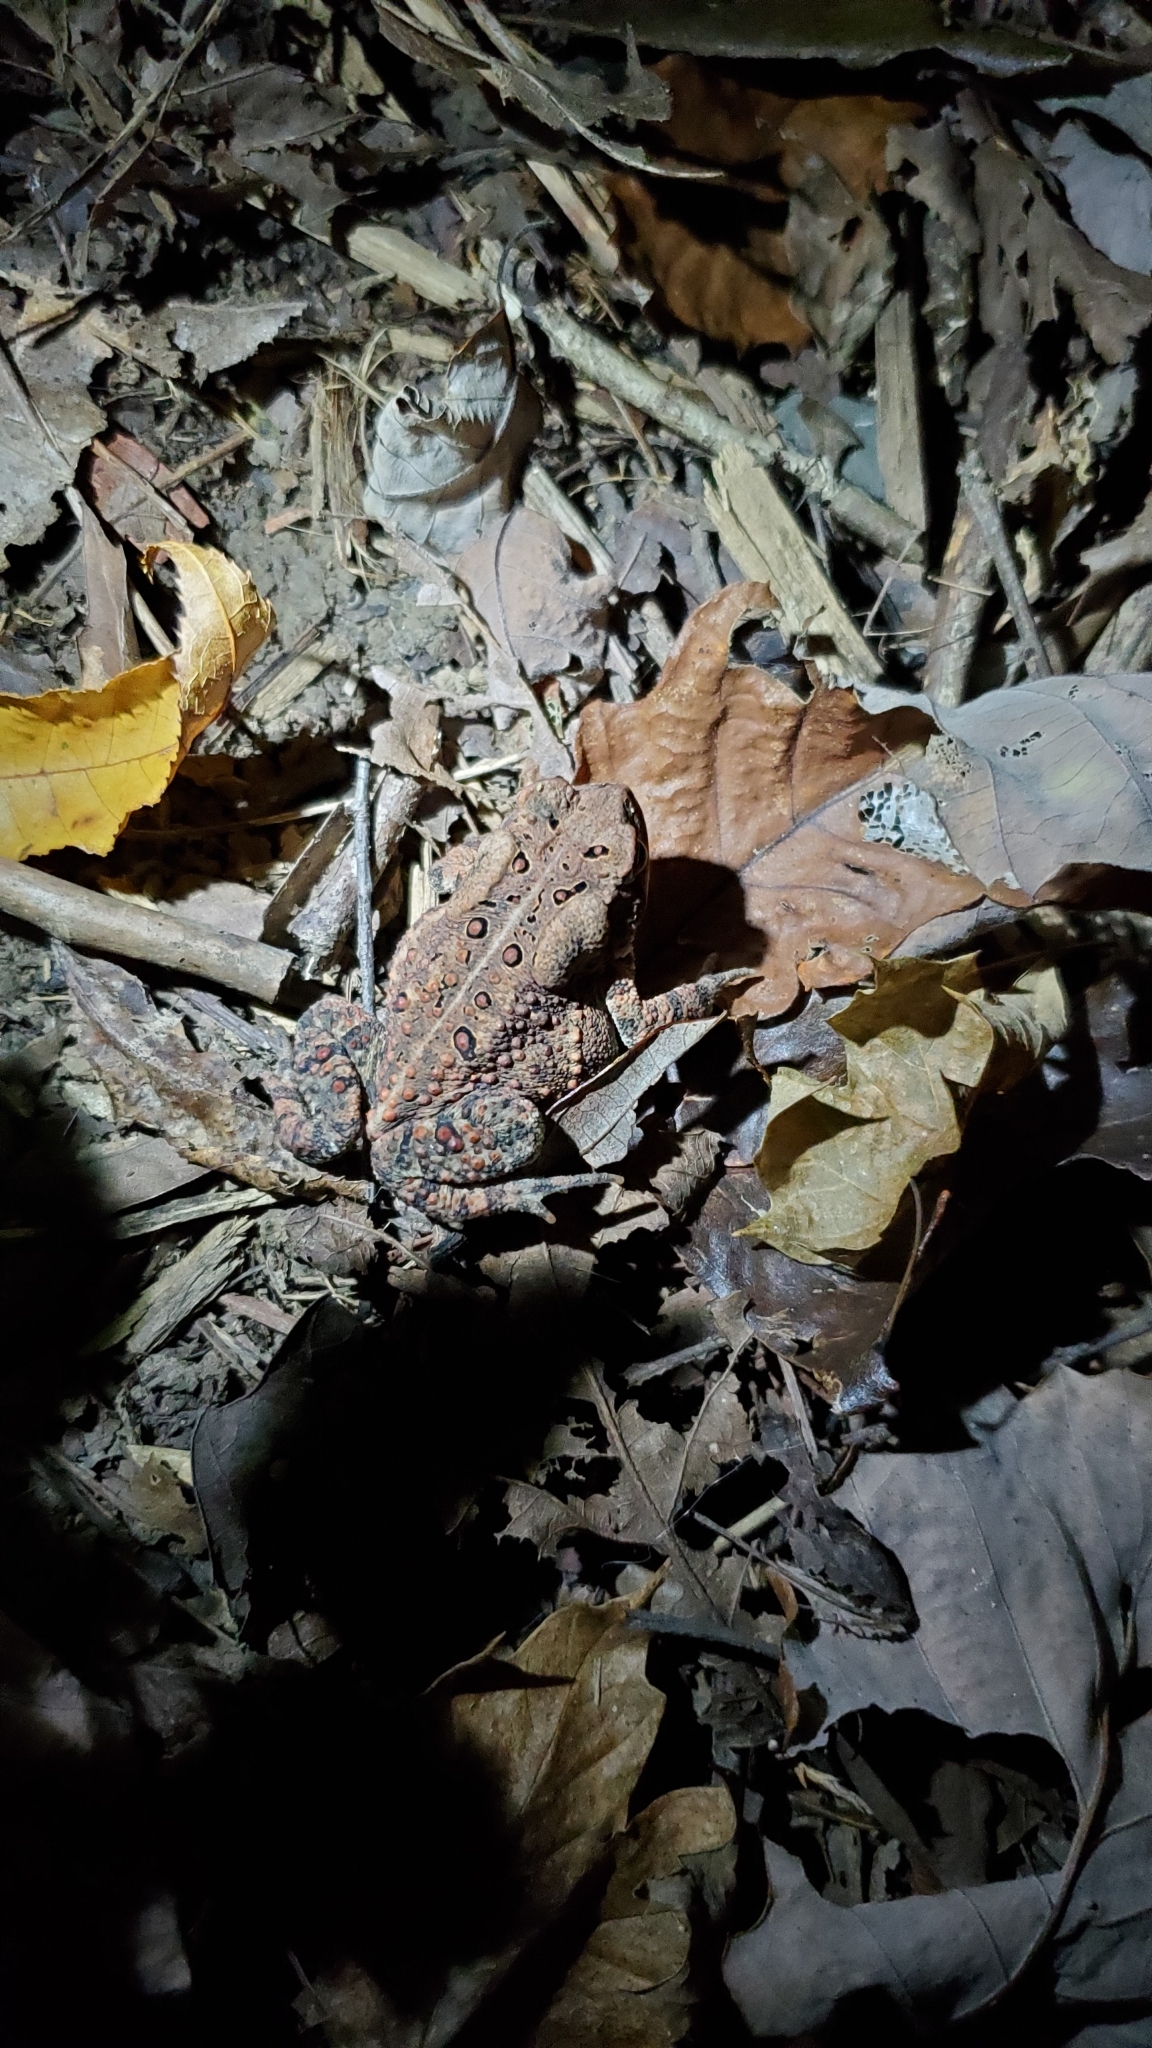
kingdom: Animalia
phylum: Chordata
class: Amphibia
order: Anura
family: Bufonidae
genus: Anaxyrus
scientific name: Anaxyrus americanus
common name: American toad
